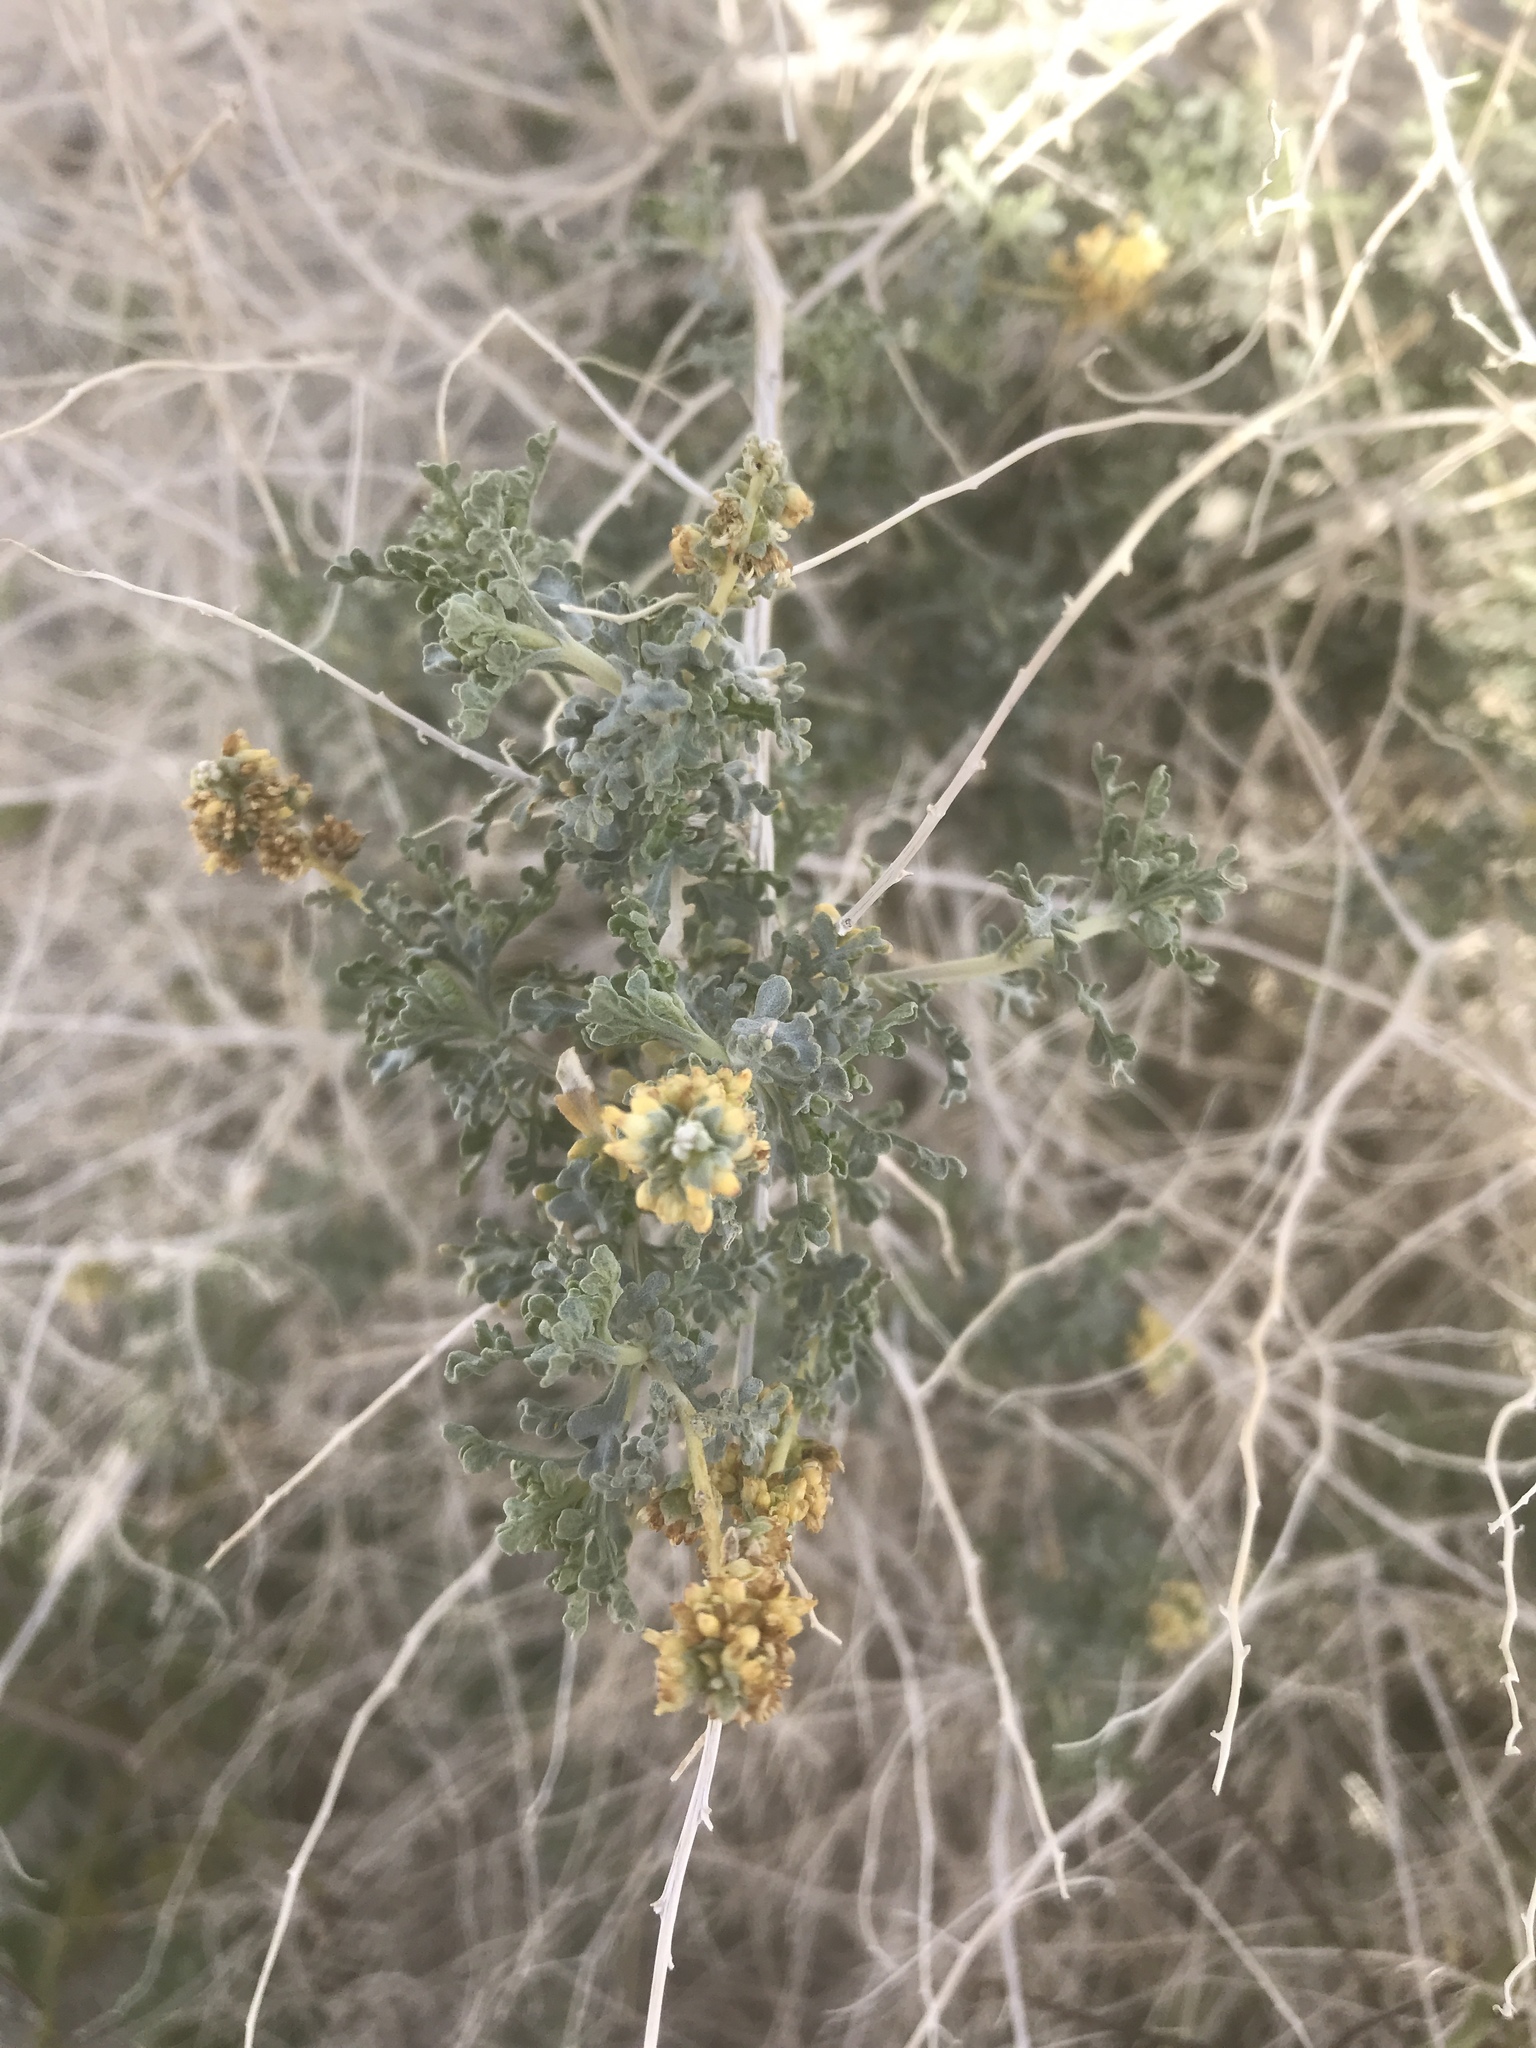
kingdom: Plantae
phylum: Tracheophyta
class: Magnoliopsida
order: Asterales
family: Asteraceae
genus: Ambrosia
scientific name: Ambrosia dumosa
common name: Bur-sage
